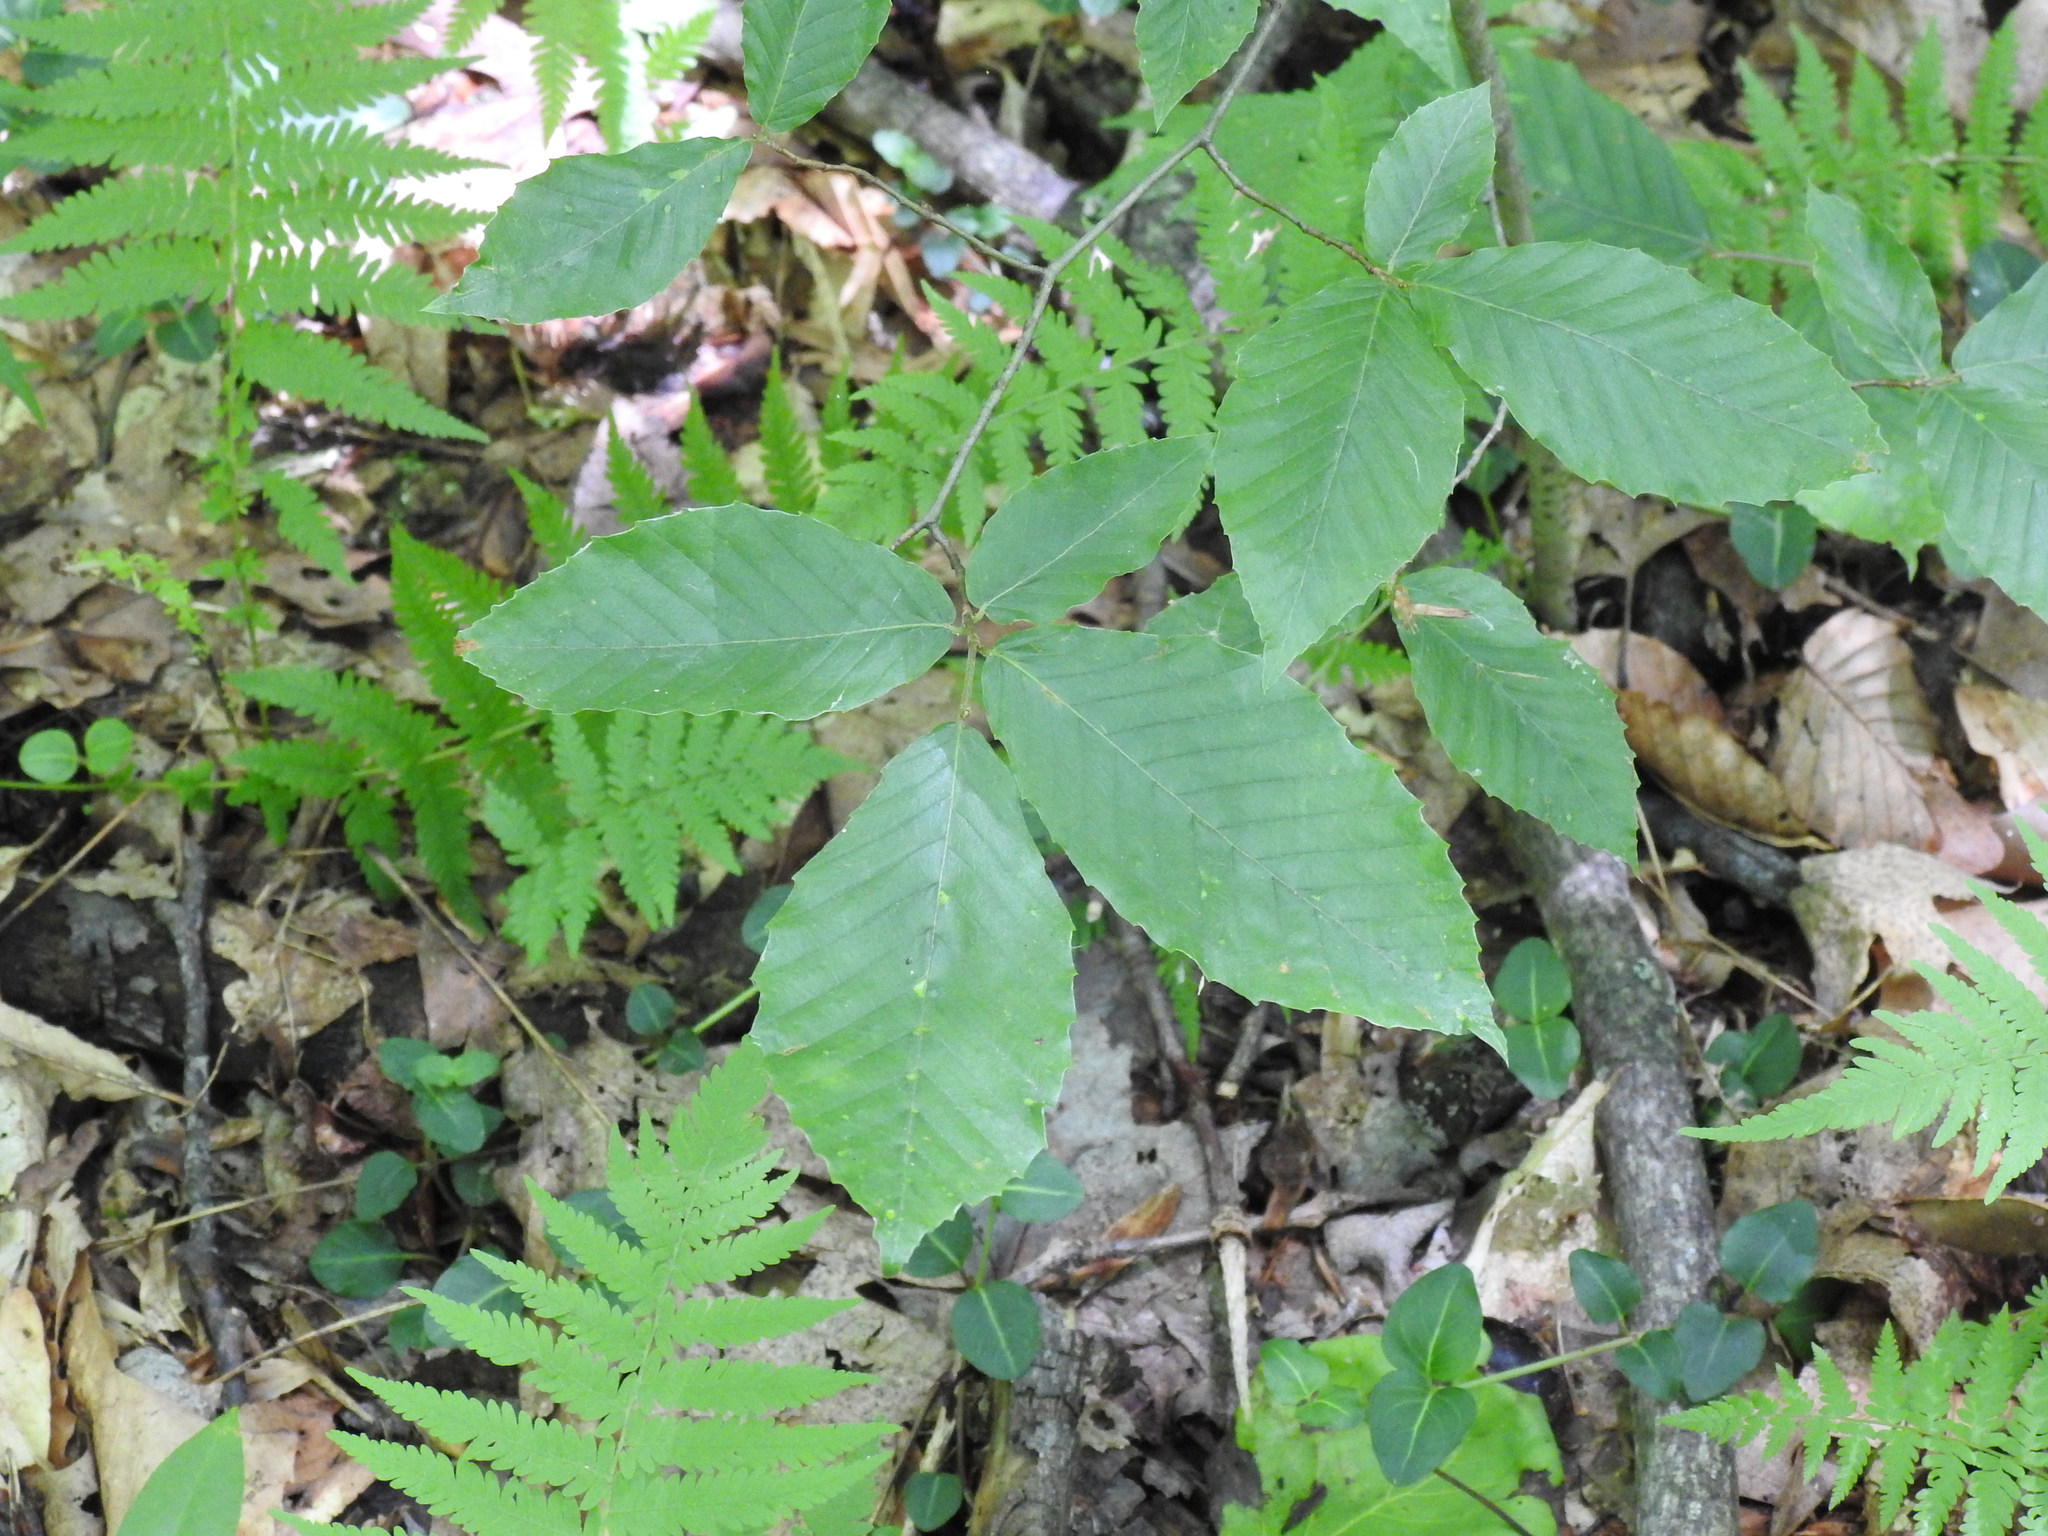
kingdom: Plantae
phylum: Tracheophyta
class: Magnoliopsida
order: Fagales
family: Fagaceae
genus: Fagus
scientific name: Fagus grandifolia
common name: American beech
